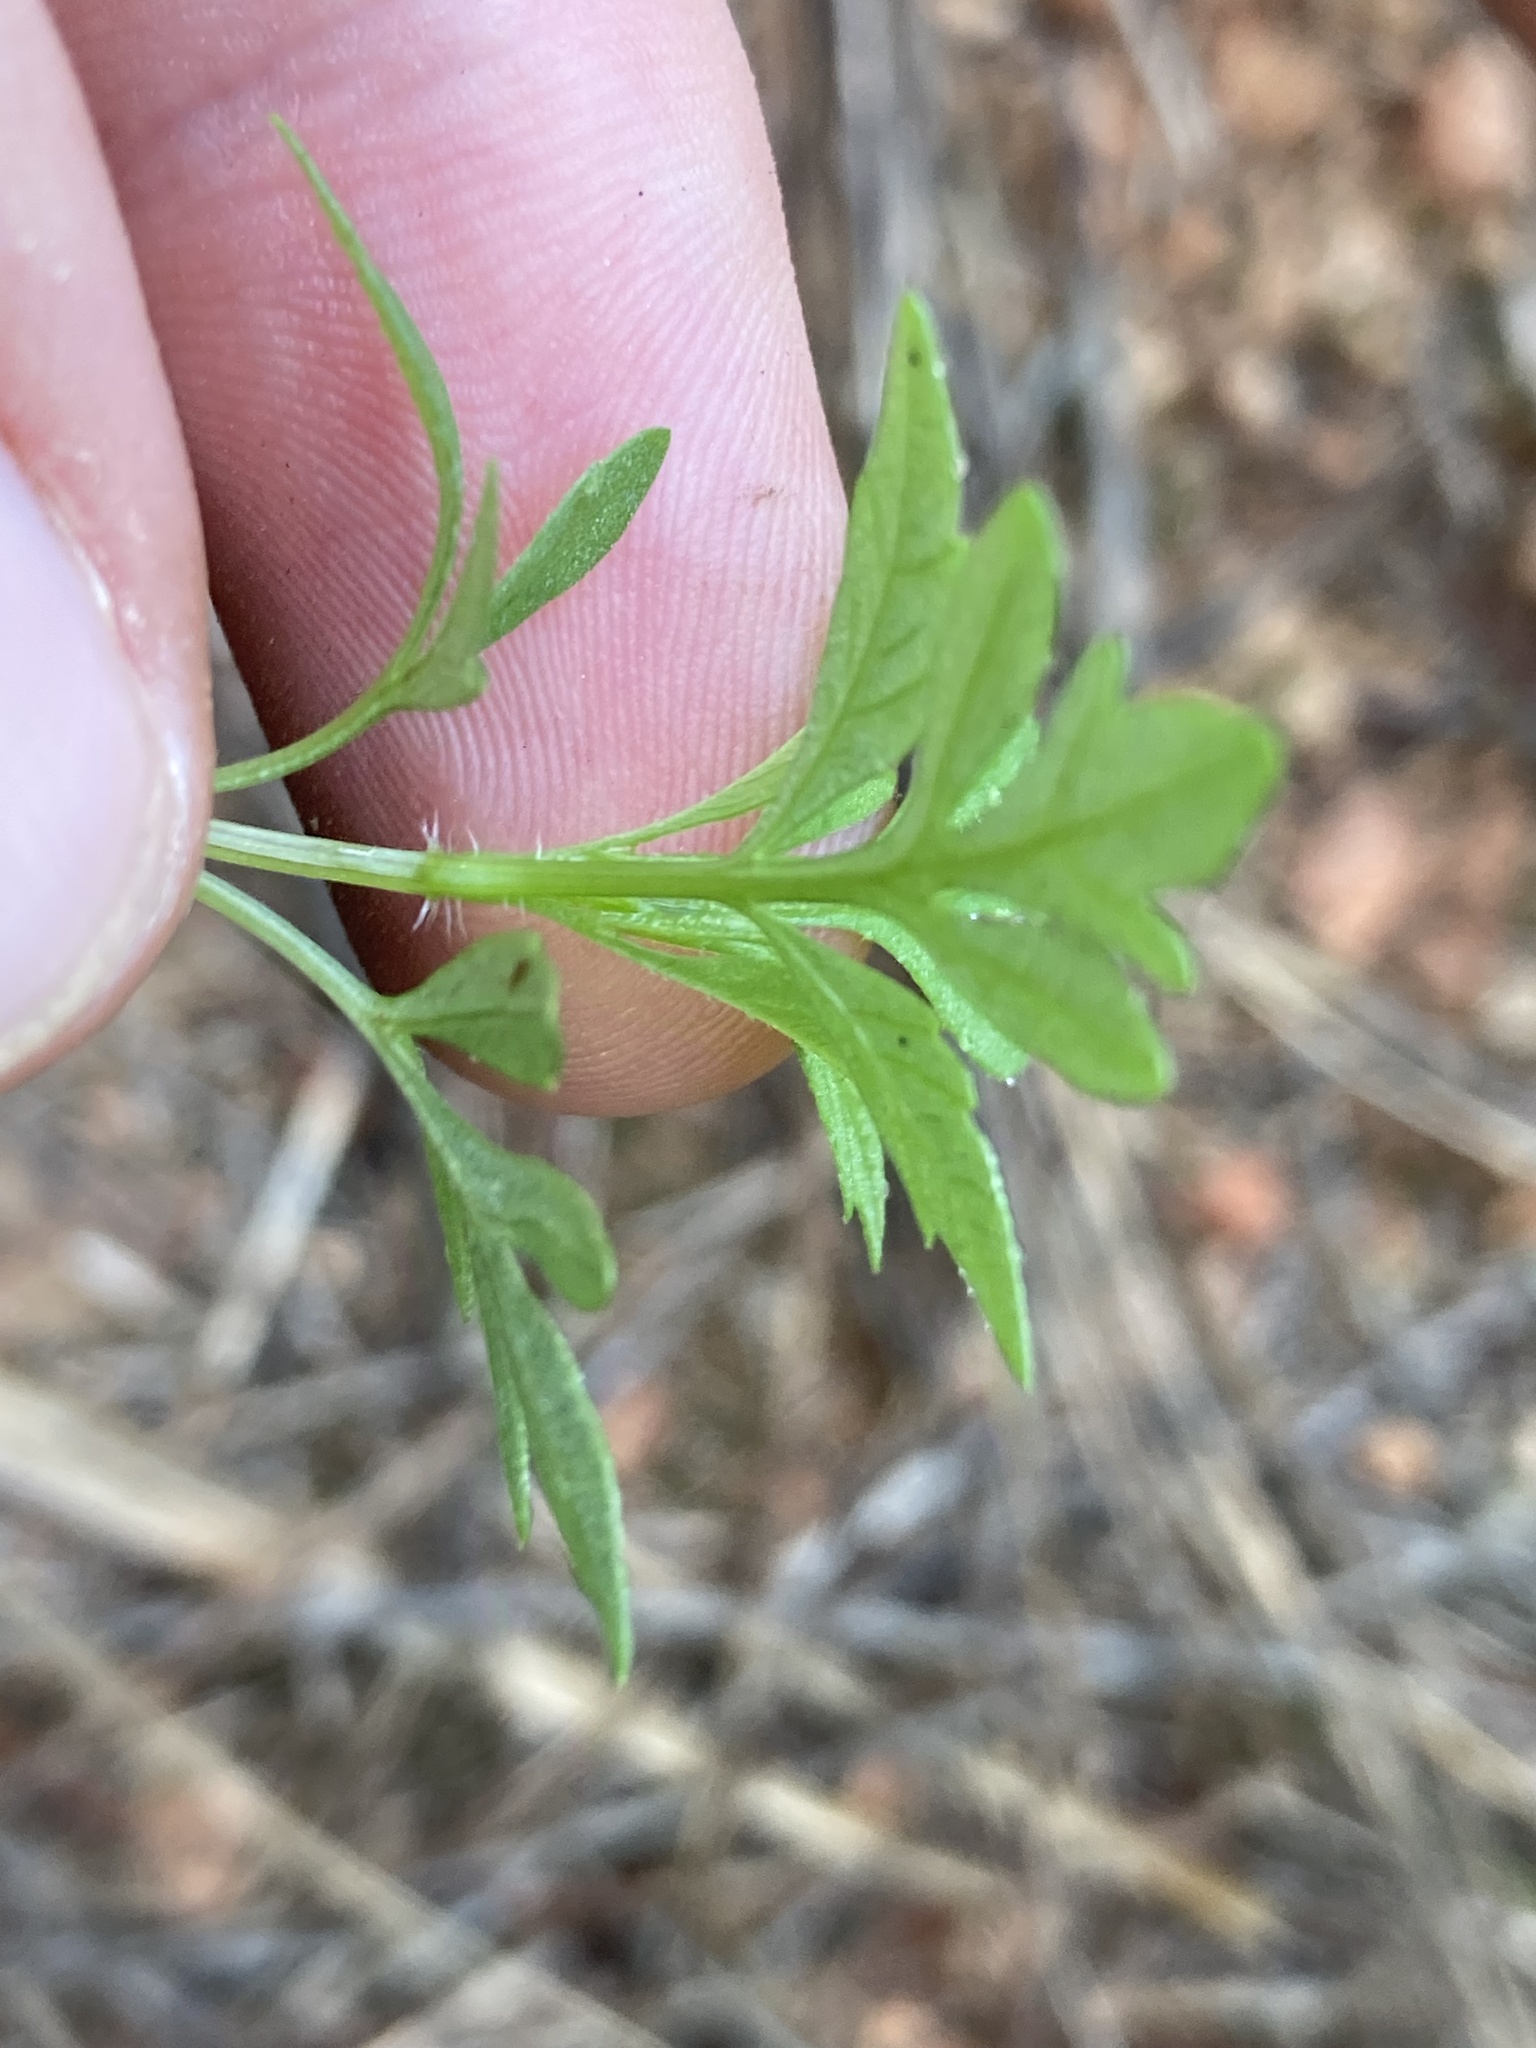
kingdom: Plantae
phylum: Tracheophyta
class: Magnoliopsida
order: Asterales
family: Asteraceae
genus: Bidens
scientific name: Bidens subalternans
